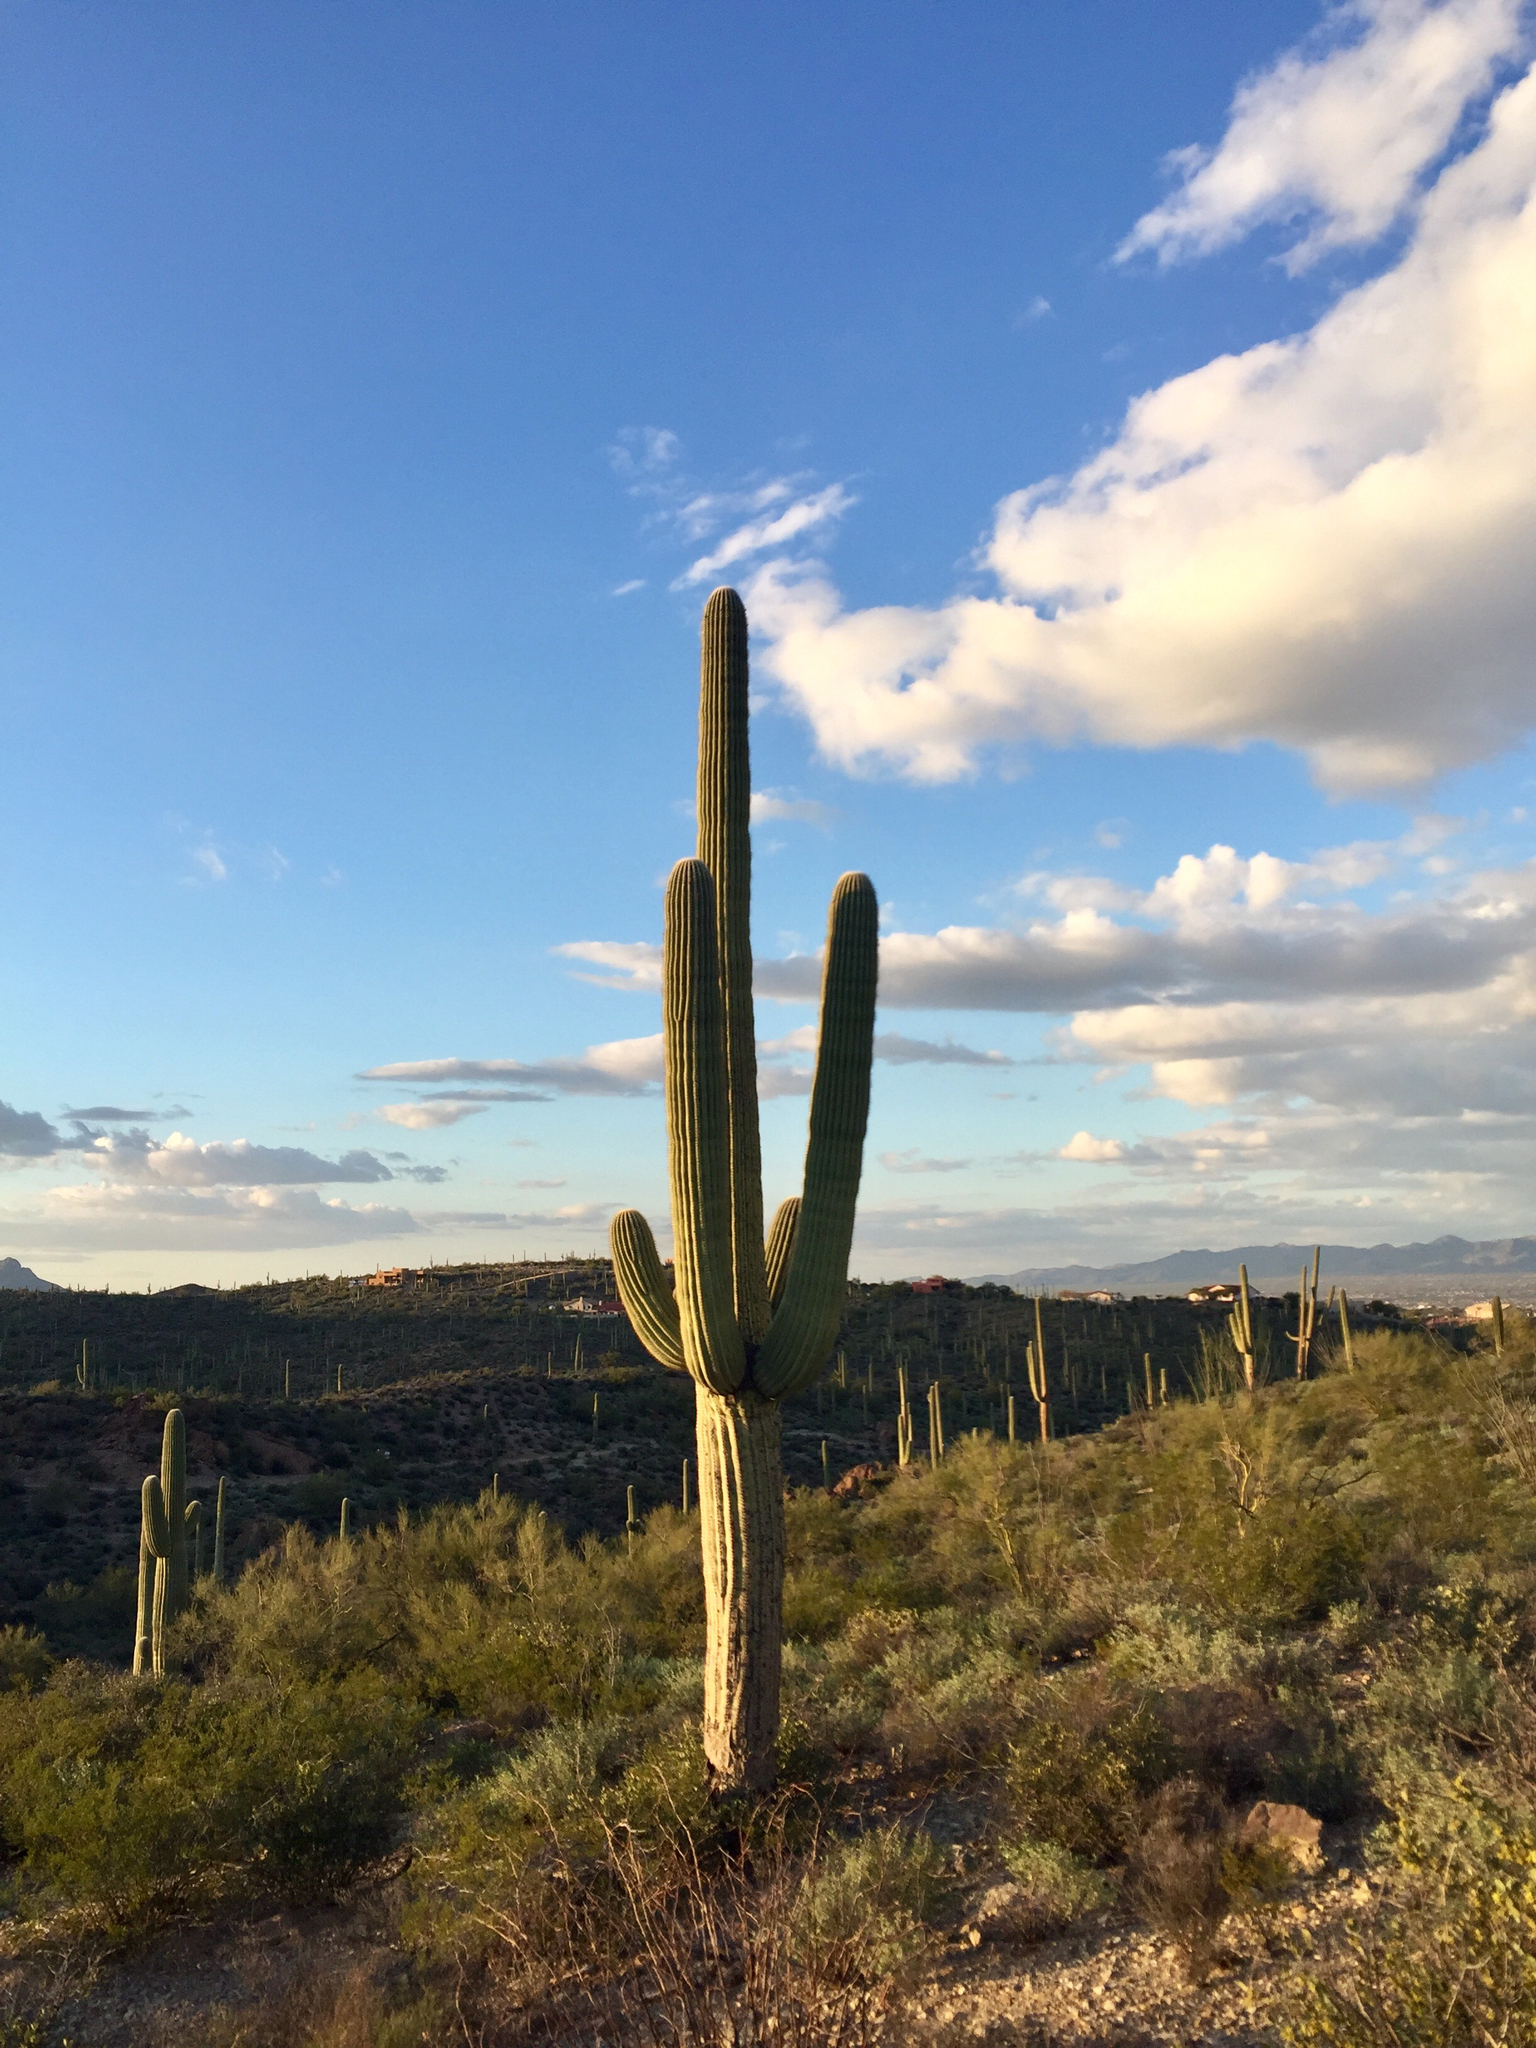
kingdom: Plantae
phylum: Tracheophyta
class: Magnoliopsida
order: Caryophyllales
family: Cactaceae
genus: Carnegiea
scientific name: Carnegiea gigantea
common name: Saguaro
